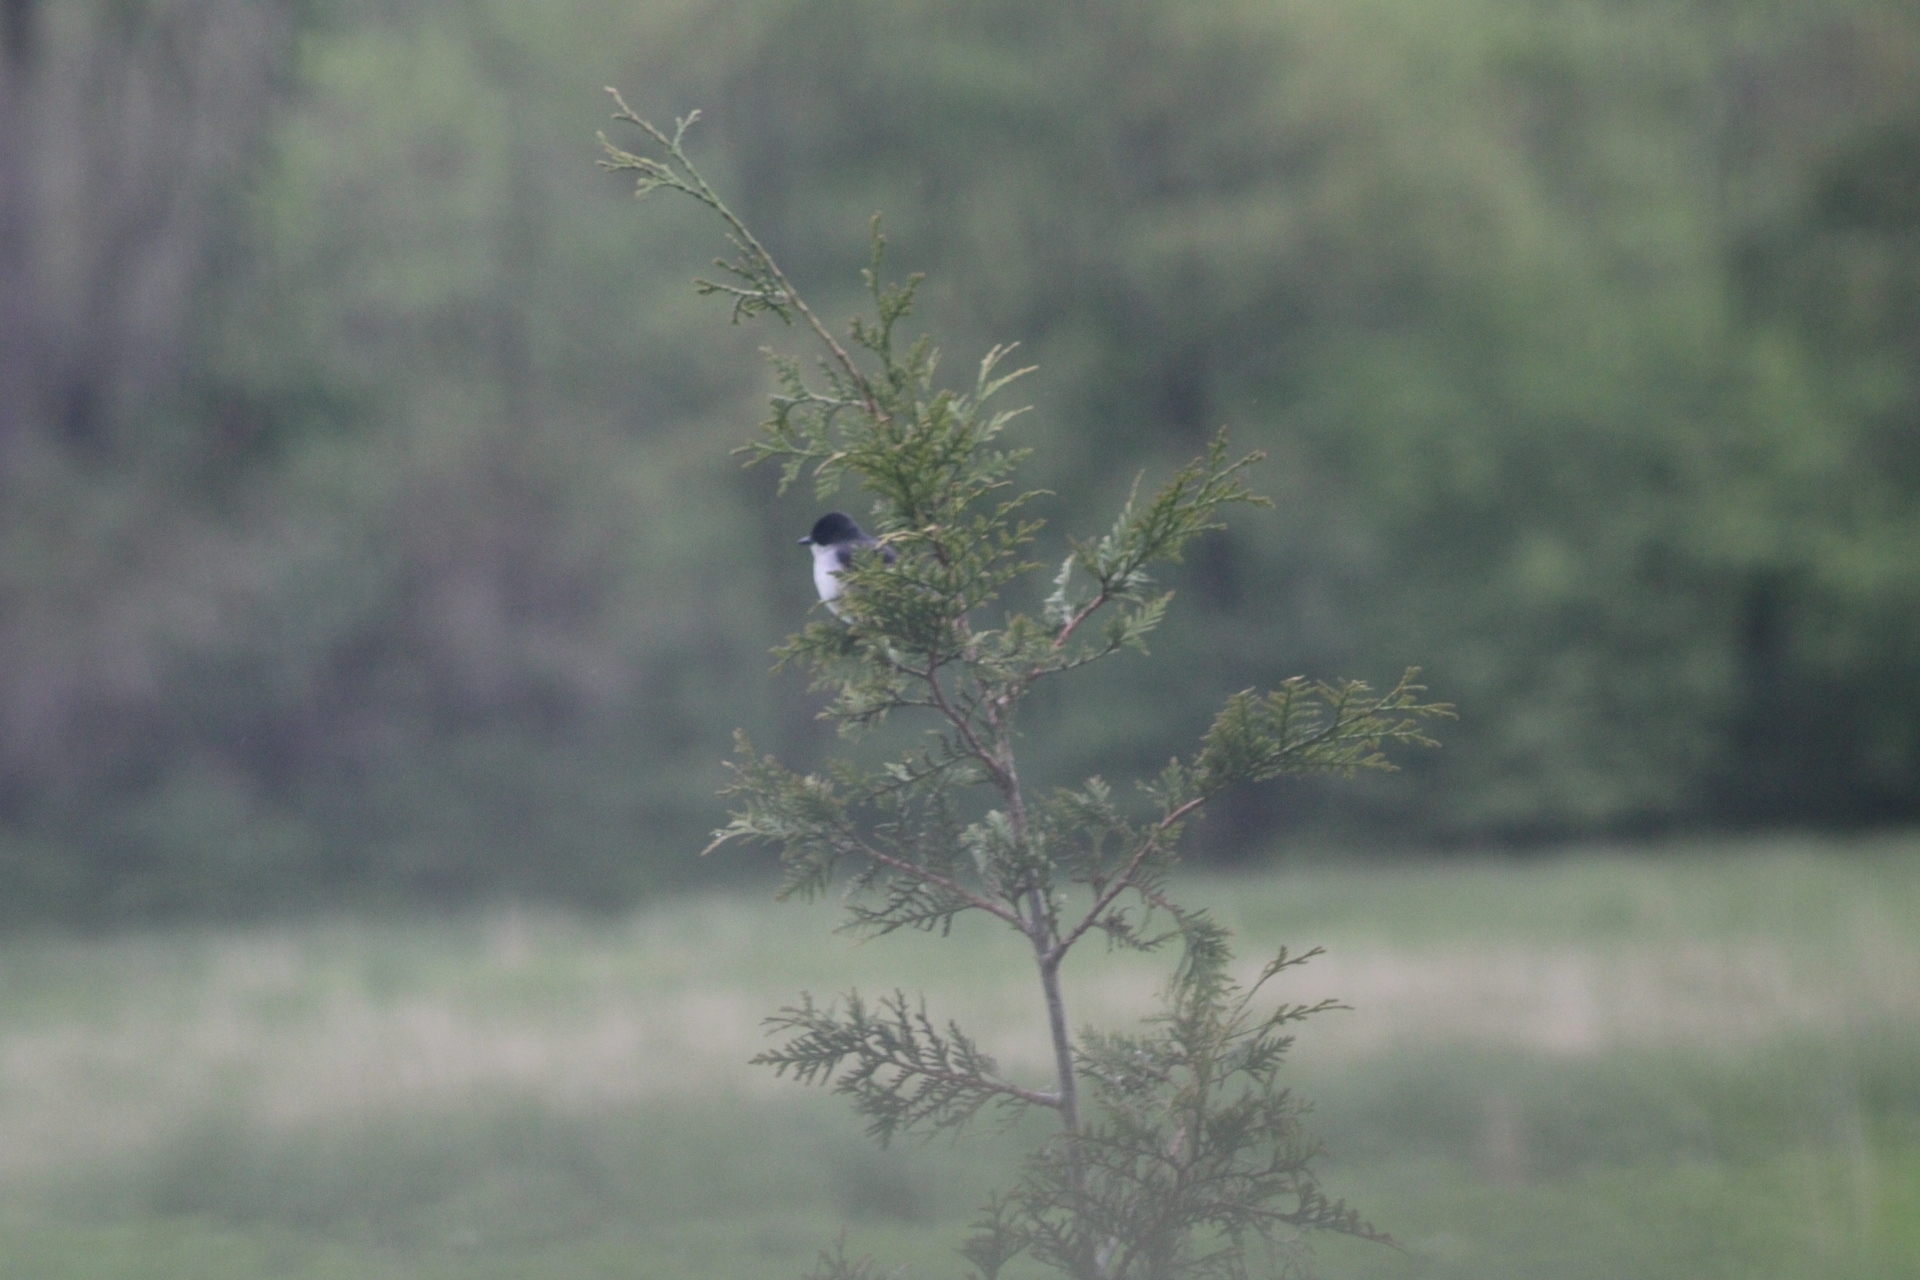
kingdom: Animalia
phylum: Chordata
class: Aves
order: Passeriformes
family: Tyrannidae
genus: Tyrannus
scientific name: Tyrannus tyrannus
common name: Eastern kingbird
